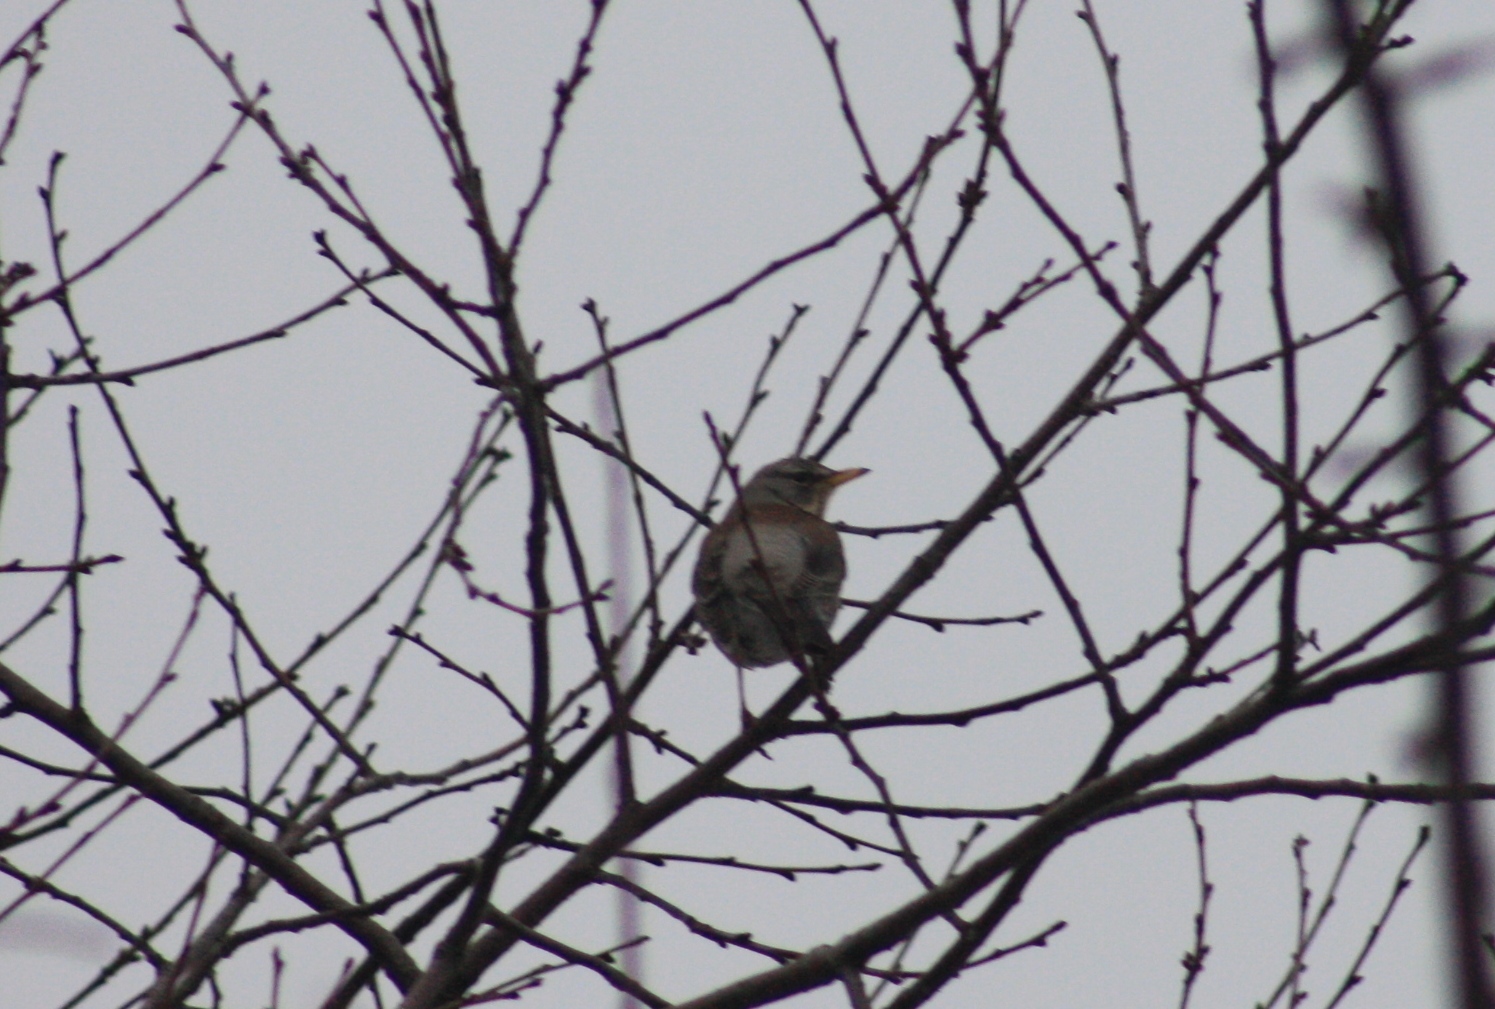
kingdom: Animalia
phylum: Chordata
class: Aves
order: Passeriformes
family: Turdidae
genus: Turdus
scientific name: Turdus pilaris
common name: Fieldfare
